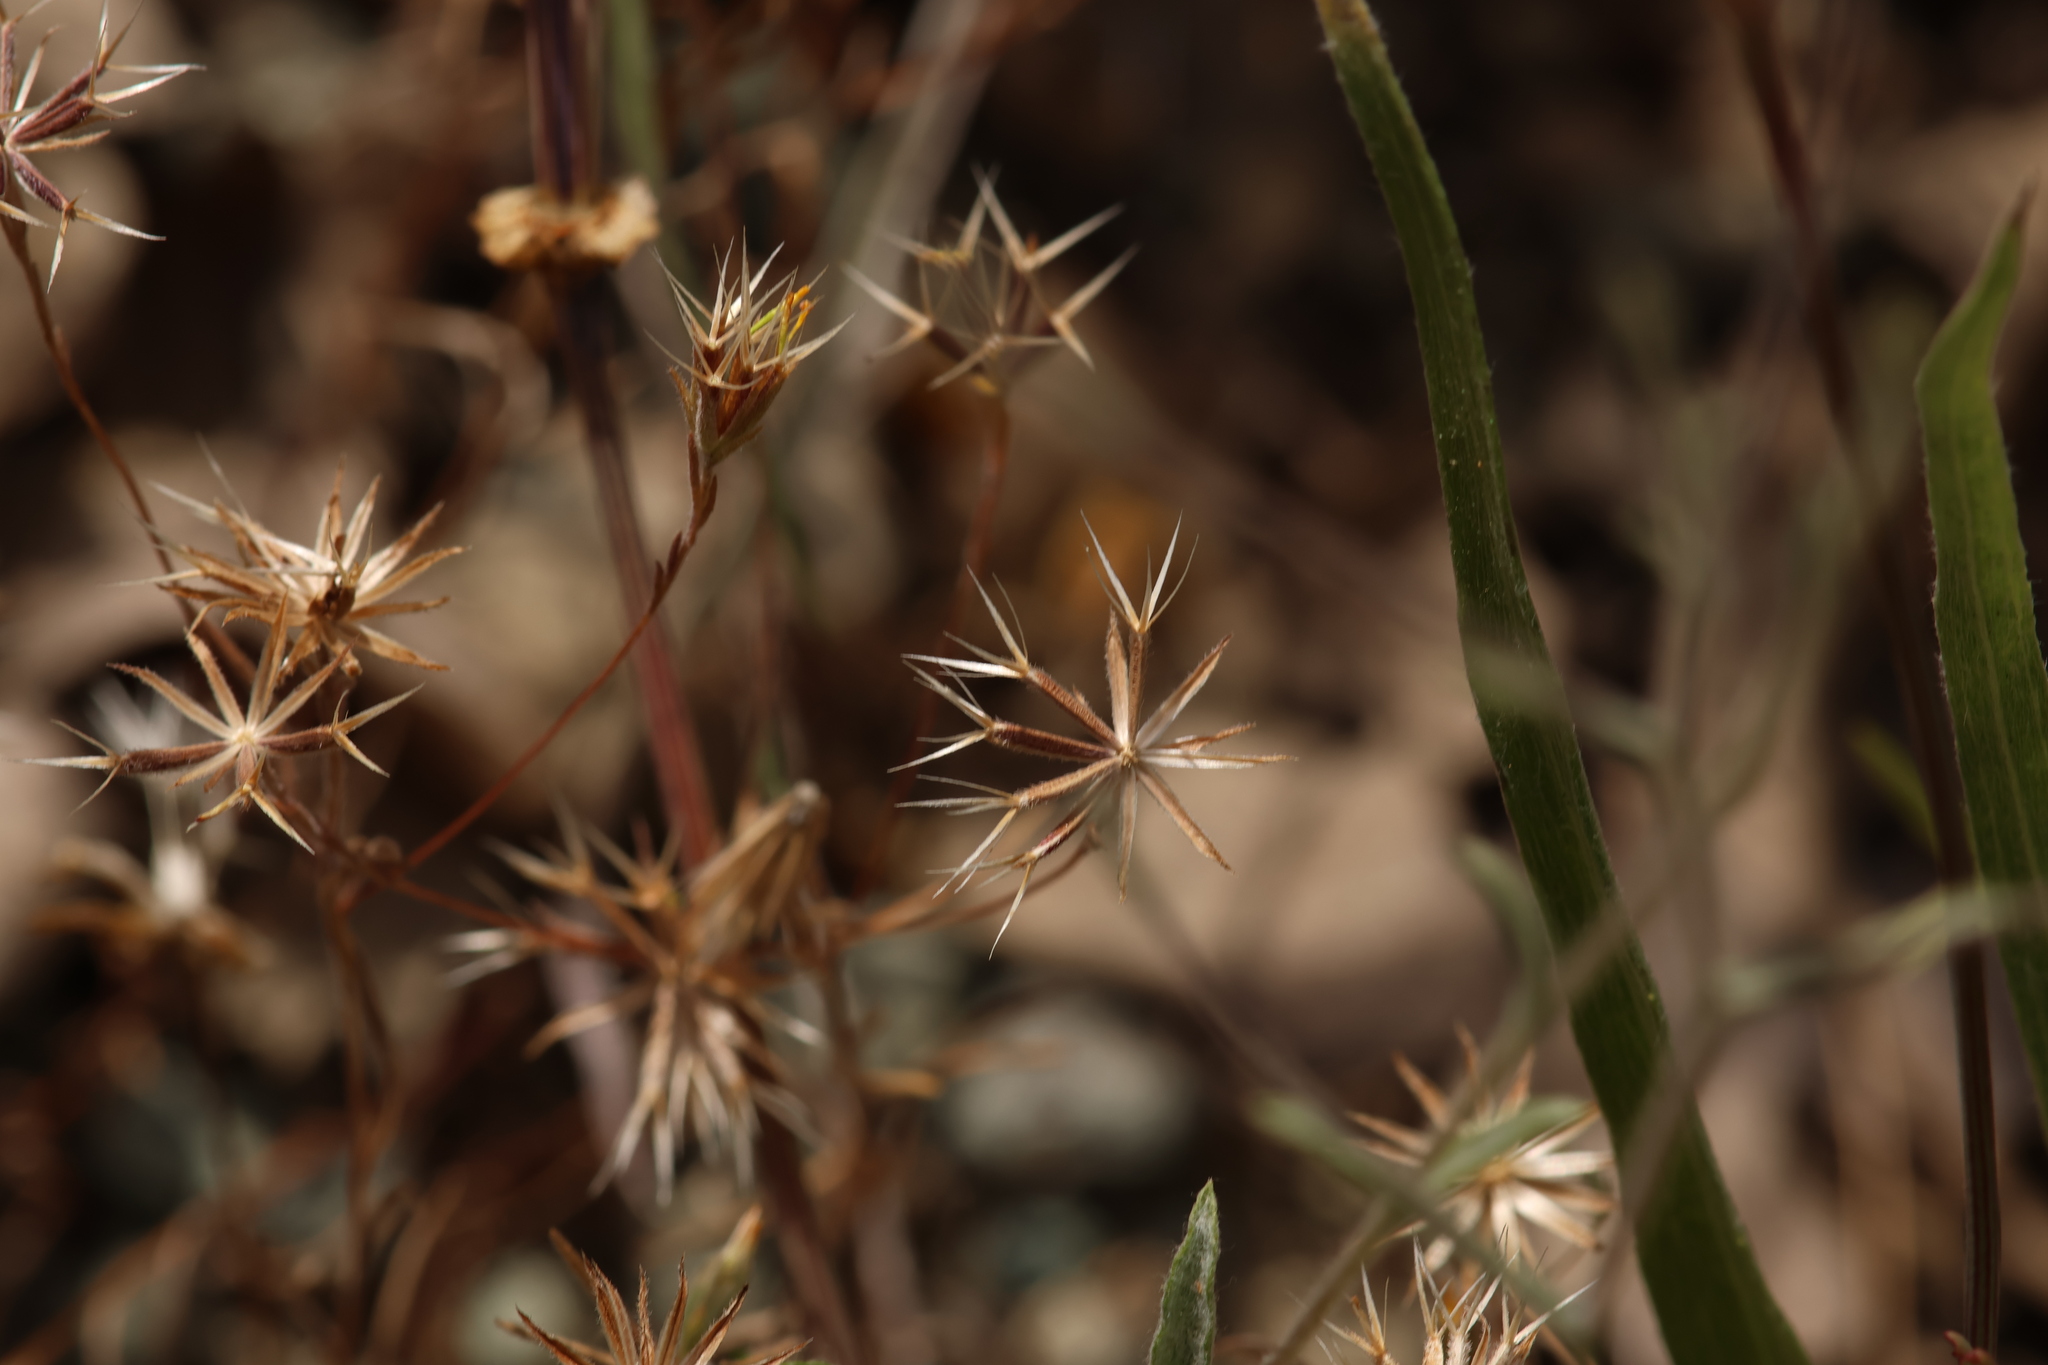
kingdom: Plantae
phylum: Tracheophyta
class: Magnoliopsida
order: Asterales
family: Asteraceae
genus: Rigiopappus
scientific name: Rigiopappus leptocladus
